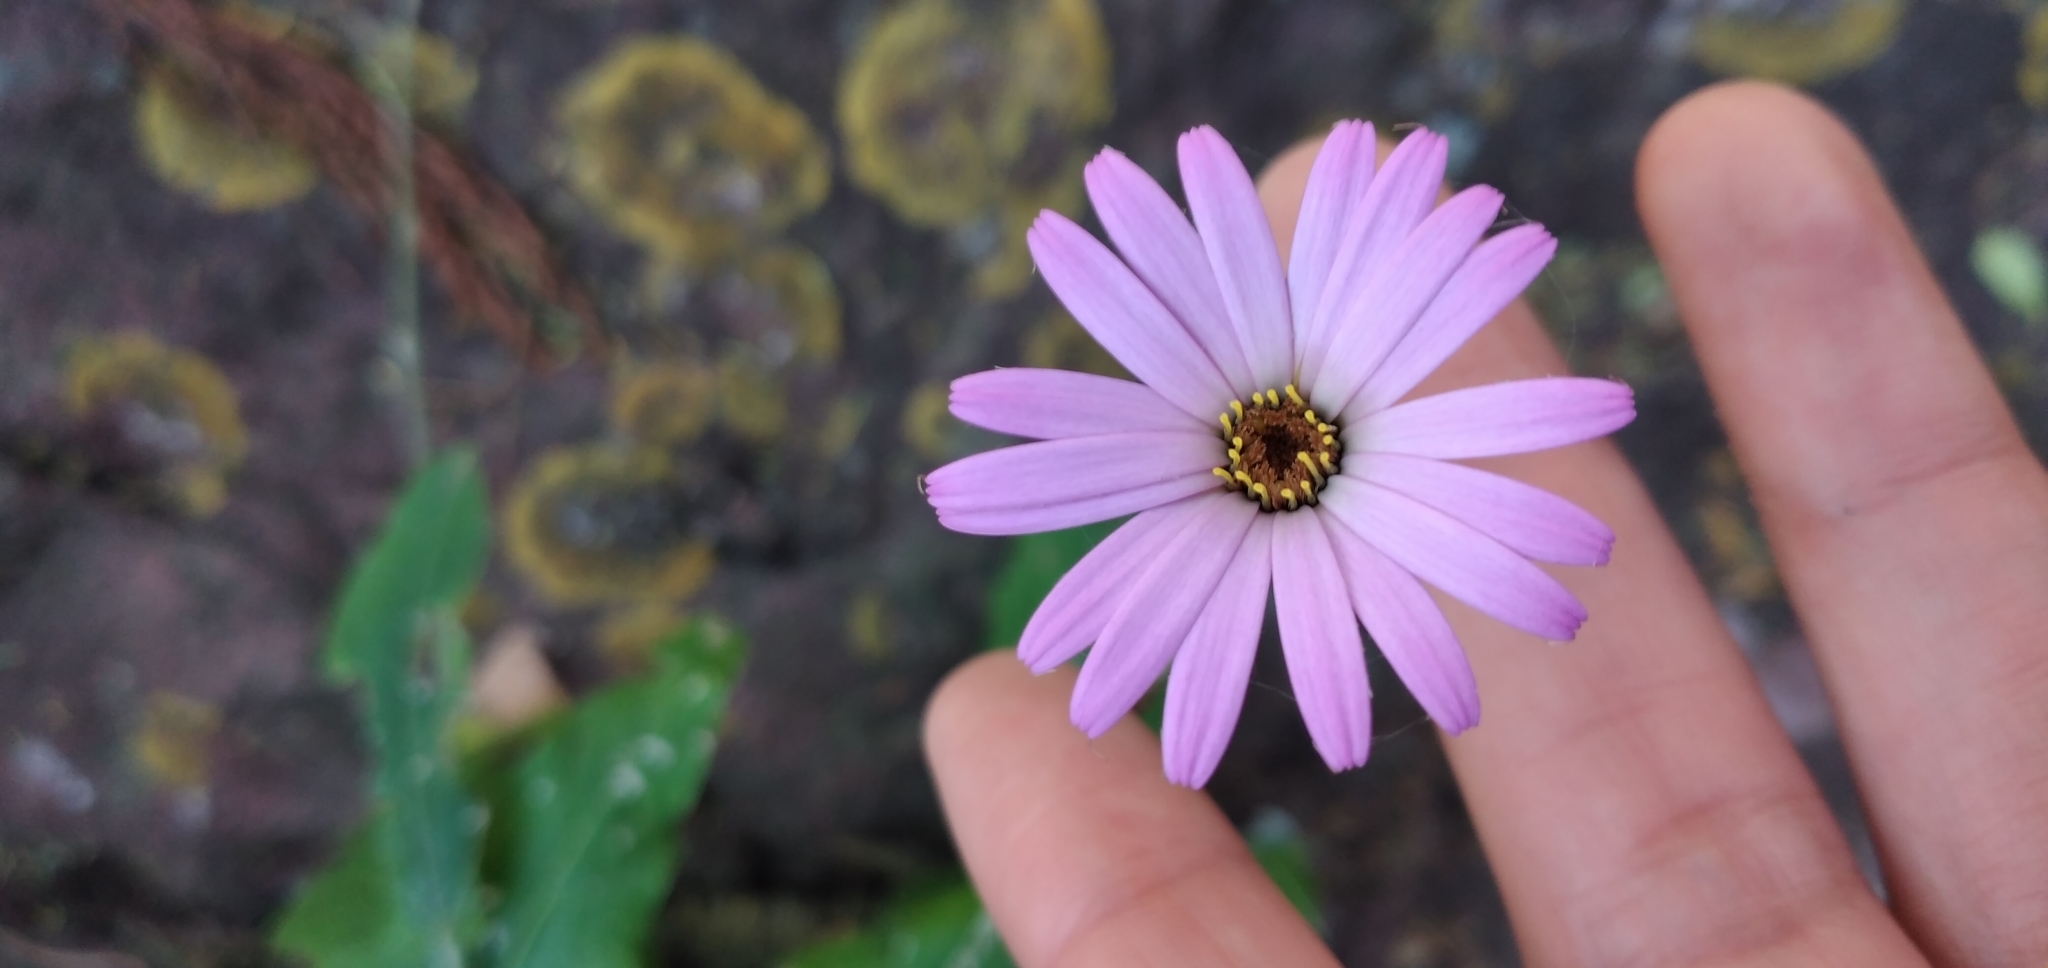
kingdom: Plantae
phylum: Tracheophyta
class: Magnoliopsida
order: Asterales
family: Asteraceae
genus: Onoseris
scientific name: Onoseris alata
